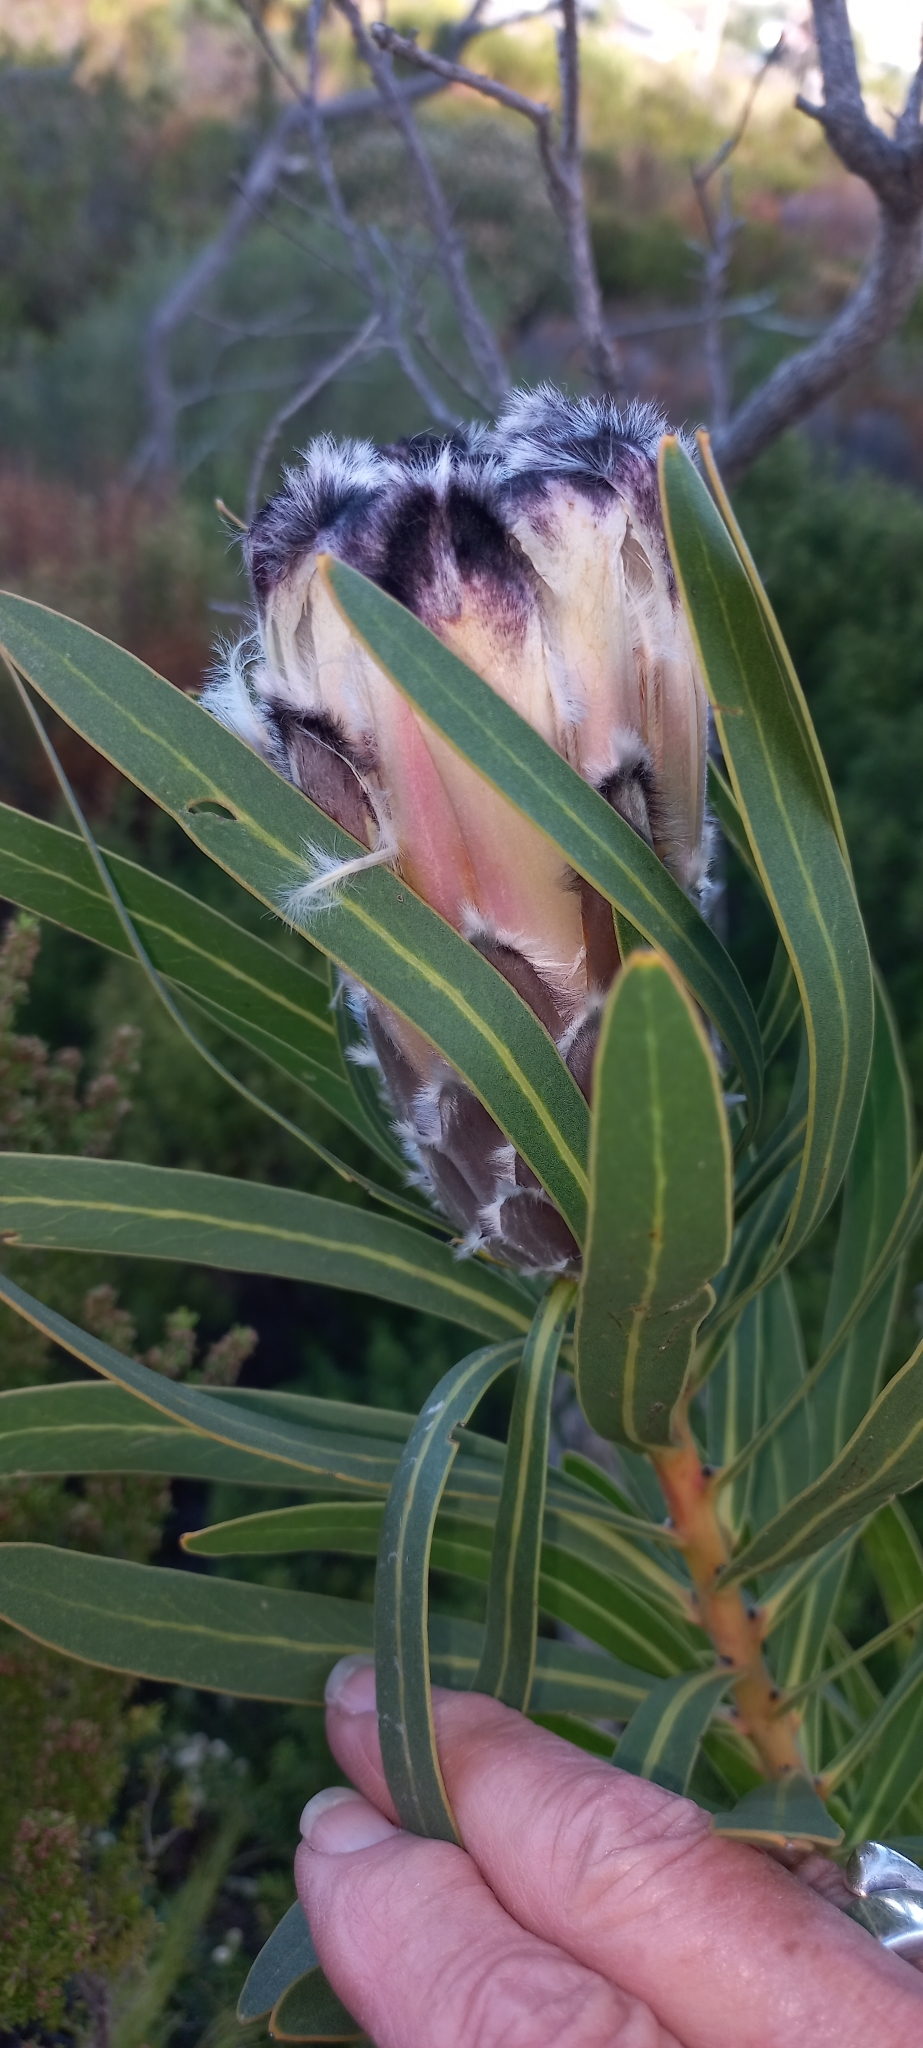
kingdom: Plantae
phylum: Tracheophyta
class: Magnoliopsida
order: Proteales
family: Proteaceae
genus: Protea
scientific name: Protea lepidocarpodendron
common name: Black-bearded protea
